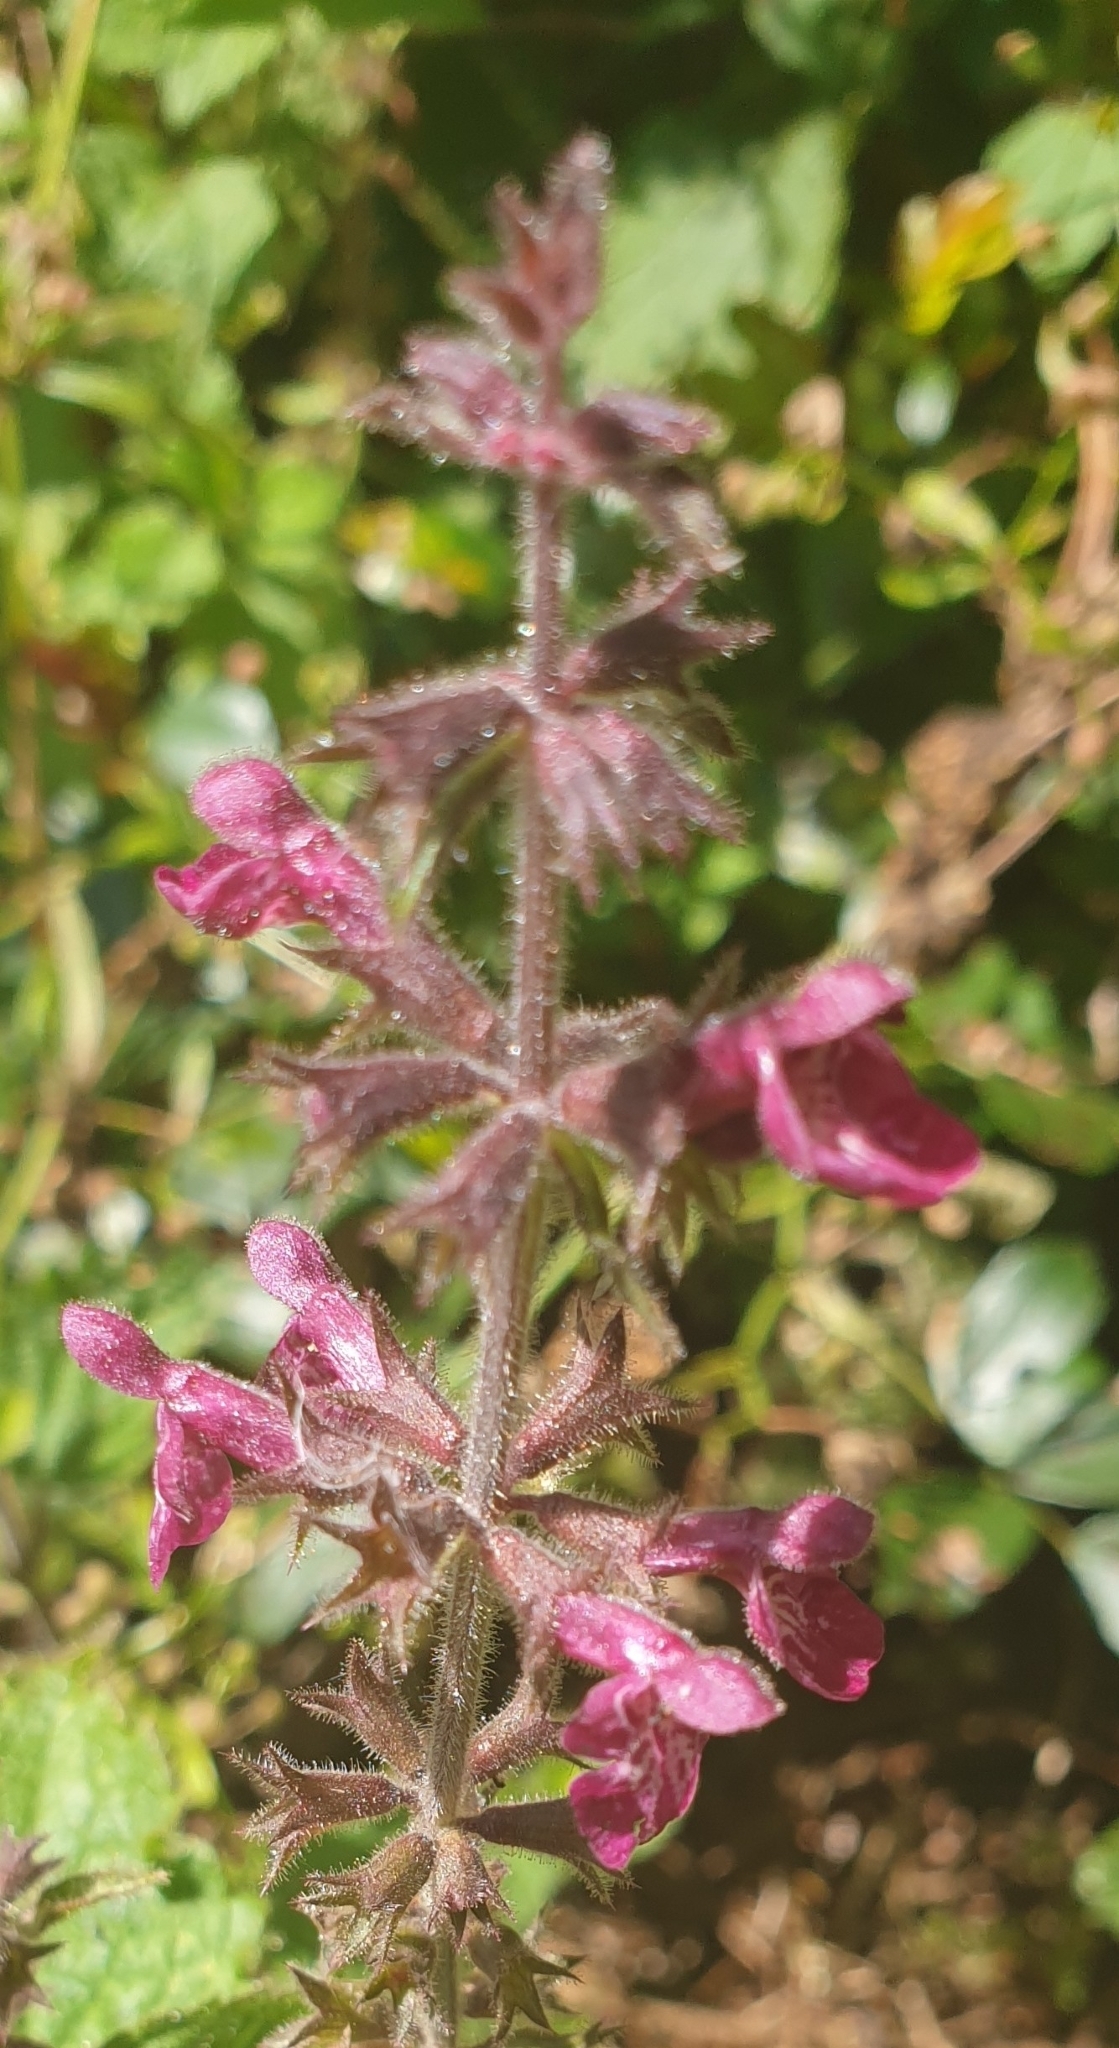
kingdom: Plantae
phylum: Tracheophyta
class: Magnoliopsida
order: Lamiales
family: Lamiaceae
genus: Stachys
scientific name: Stachys sylvatica
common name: Hedge woundwort
